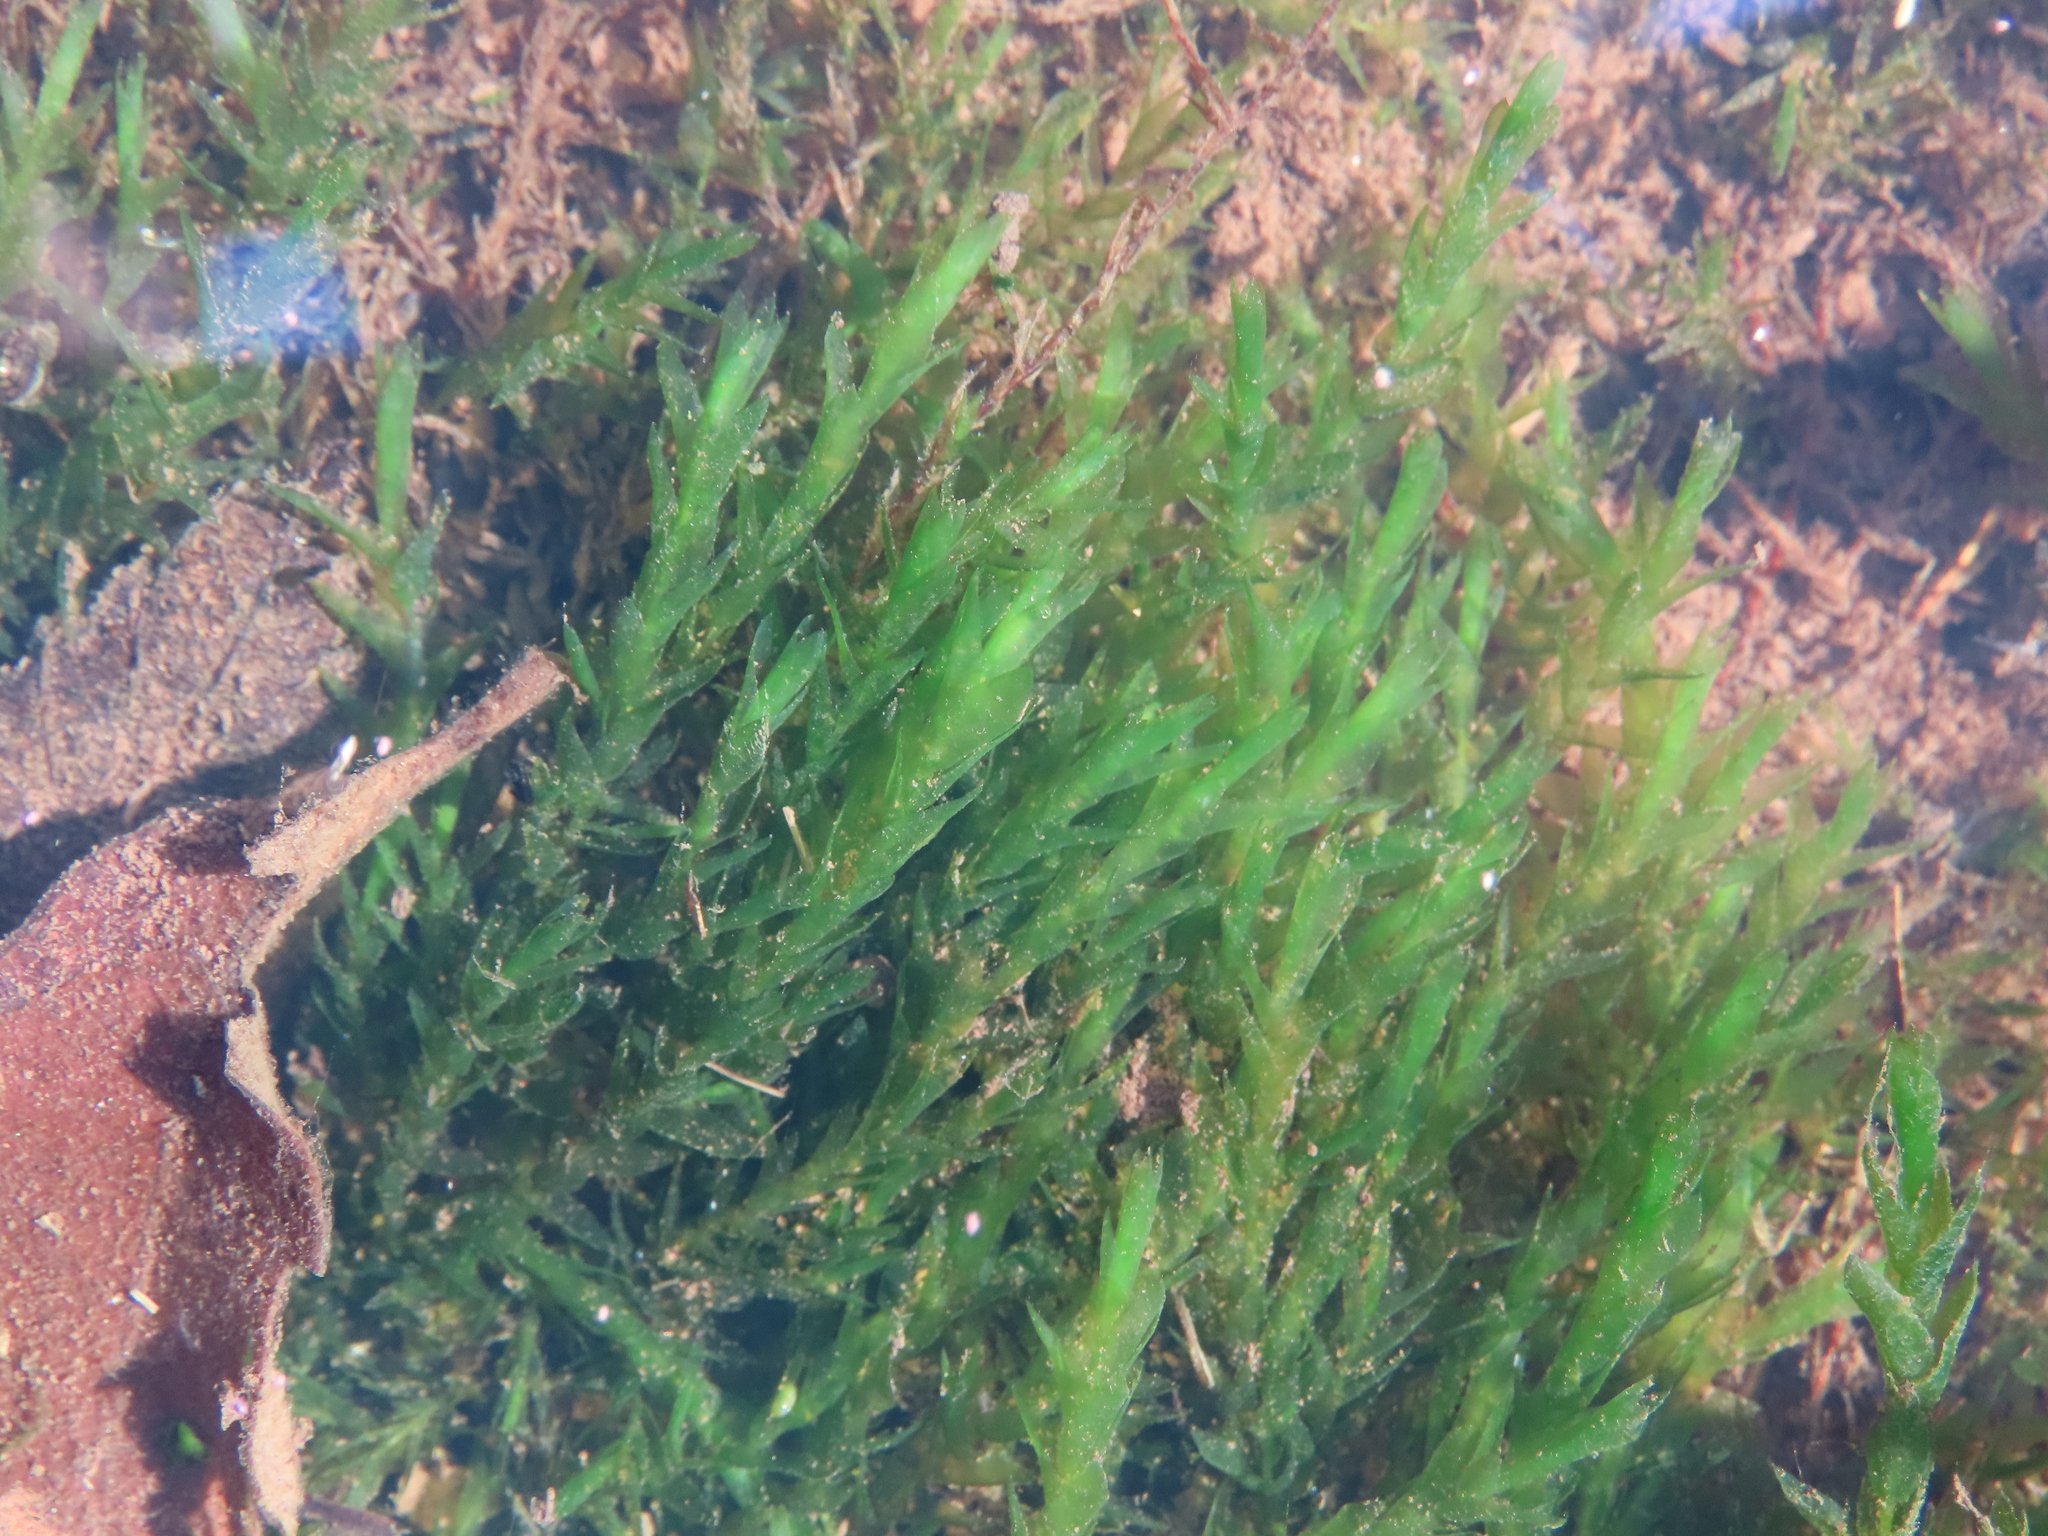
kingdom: Plantae
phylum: Bryophyta
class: Bryopsida
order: Hypnales
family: Fontinalaceae
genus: Fontinalis
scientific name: Fontinalis hypnoides
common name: River moss
